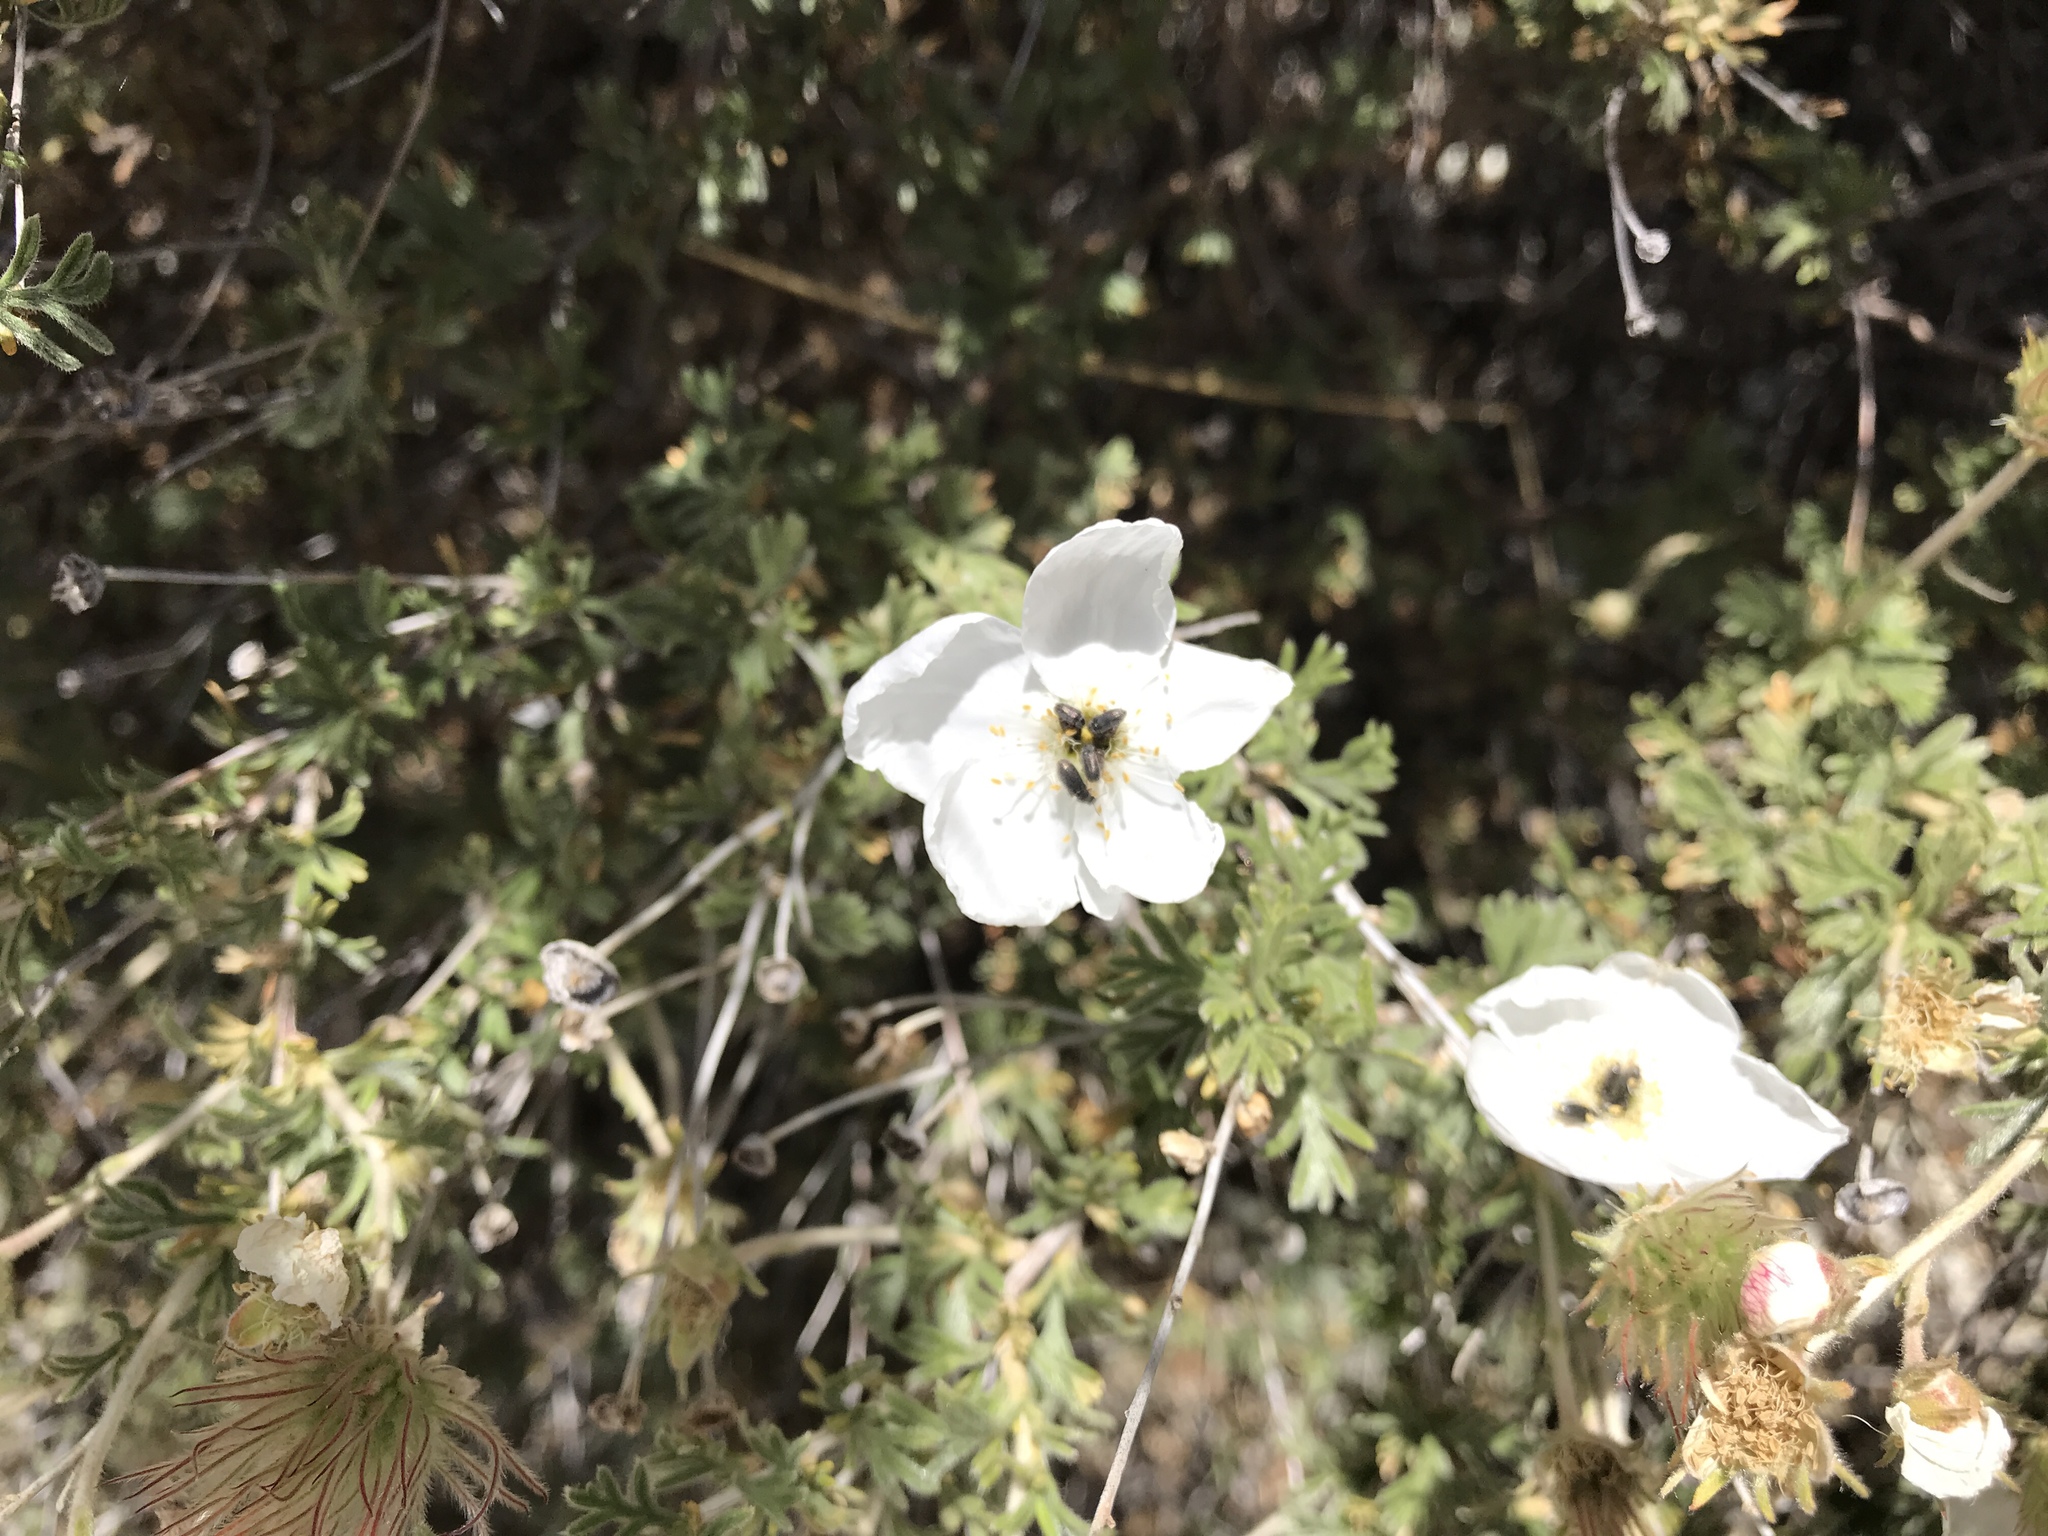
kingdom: Plantae
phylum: Tracheophyta
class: Magnoliopsida
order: Rosales
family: Rosaceae
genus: Fallugia
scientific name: Fallugia paradoxa
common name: Apache-plume
